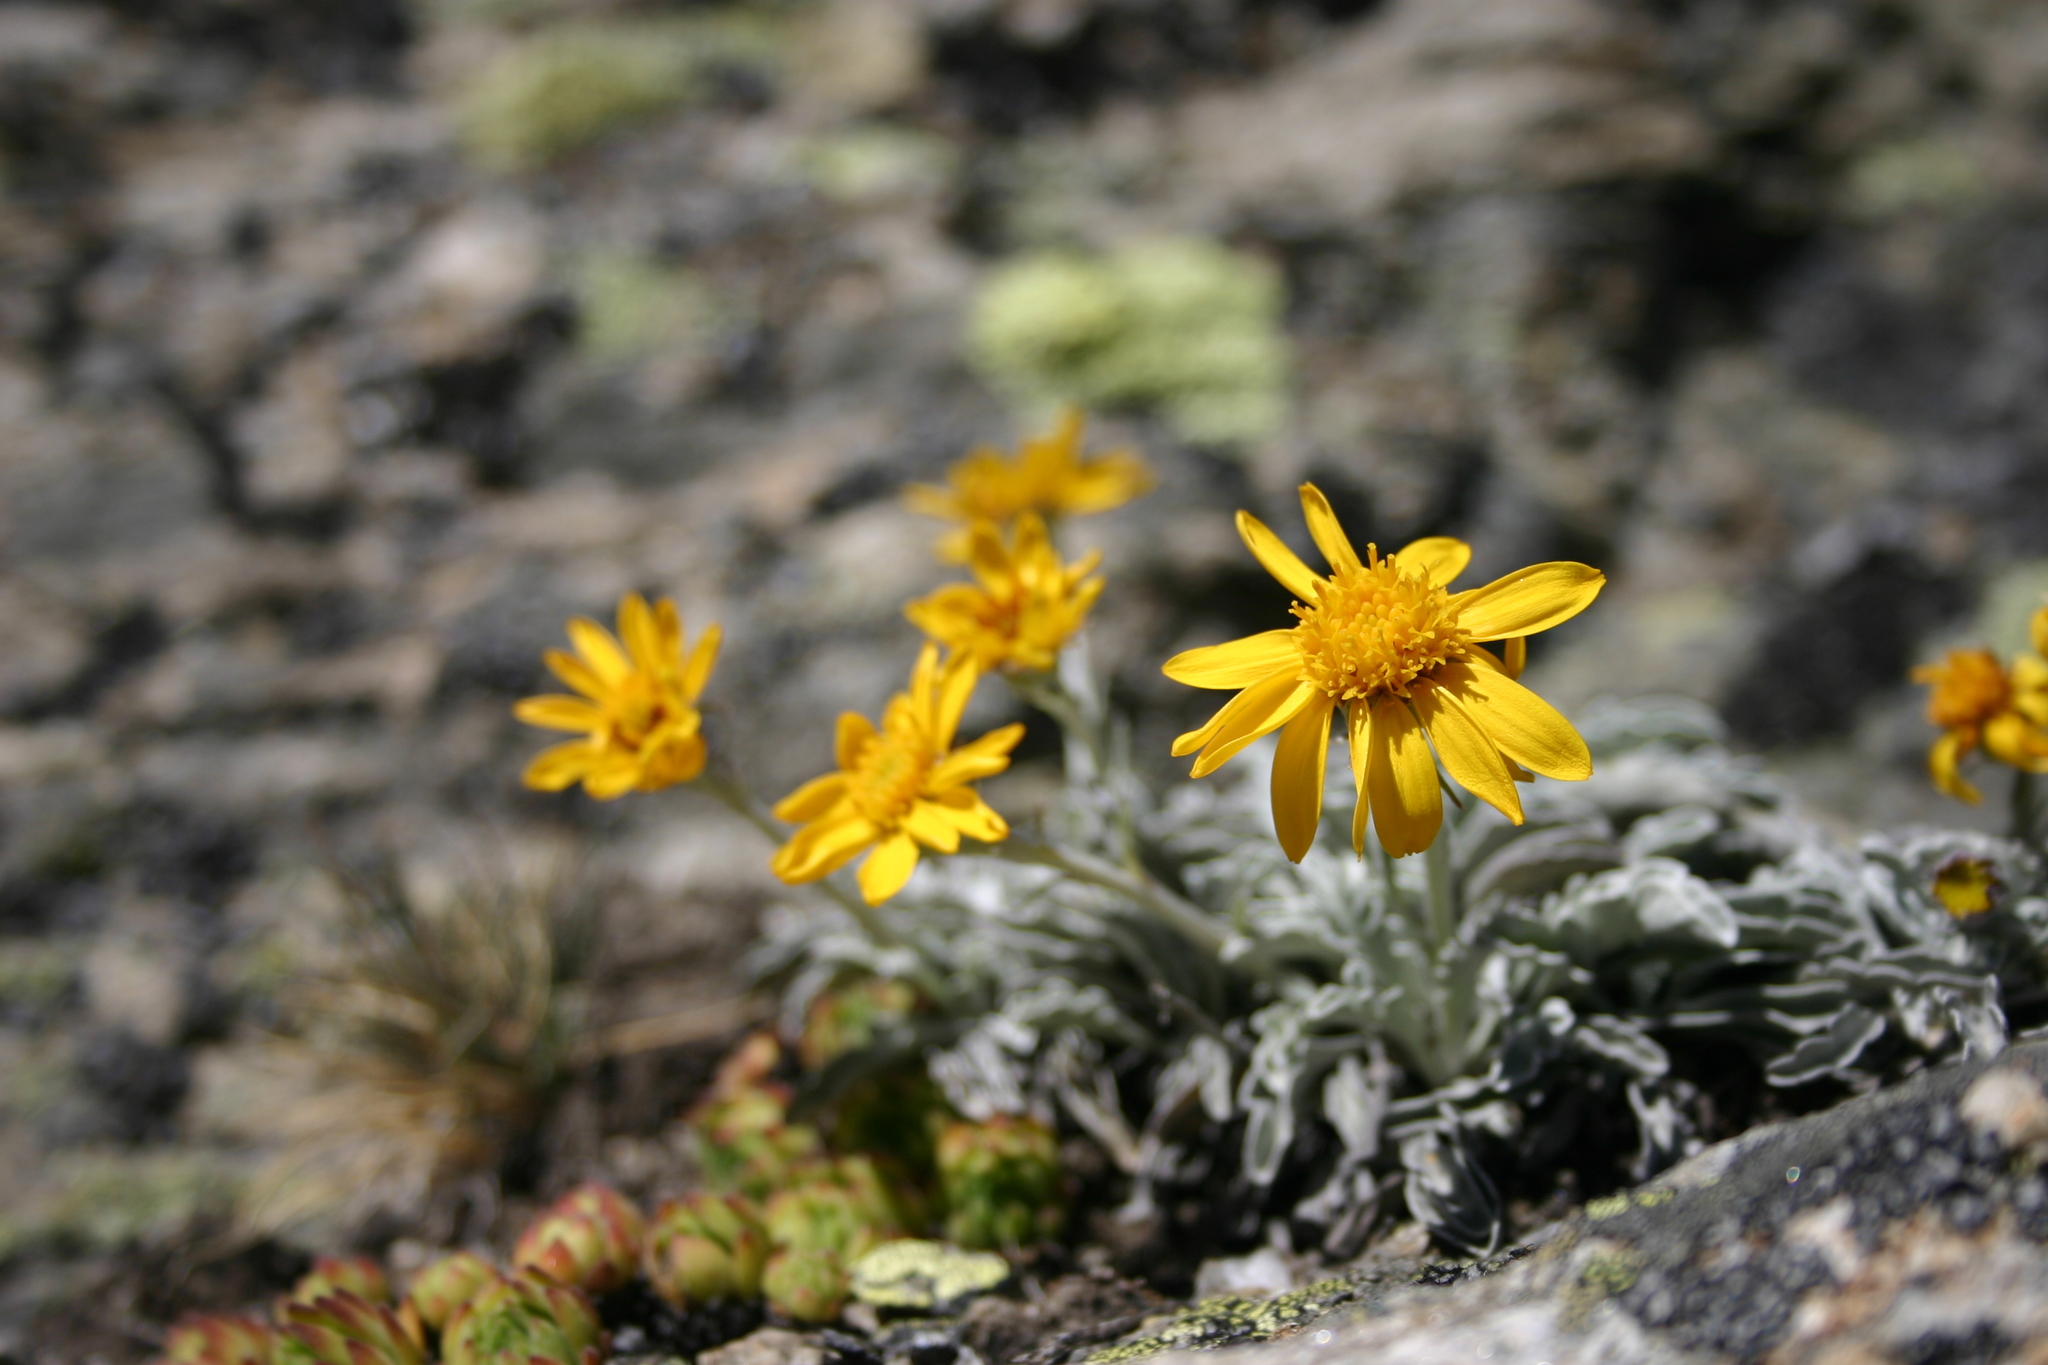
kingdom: Plantae
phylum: Tracheophyta
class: Magnoliopsida
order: Asterales
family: Asteraceae
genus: Jacobaea
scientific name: Jacobaea uniflora
